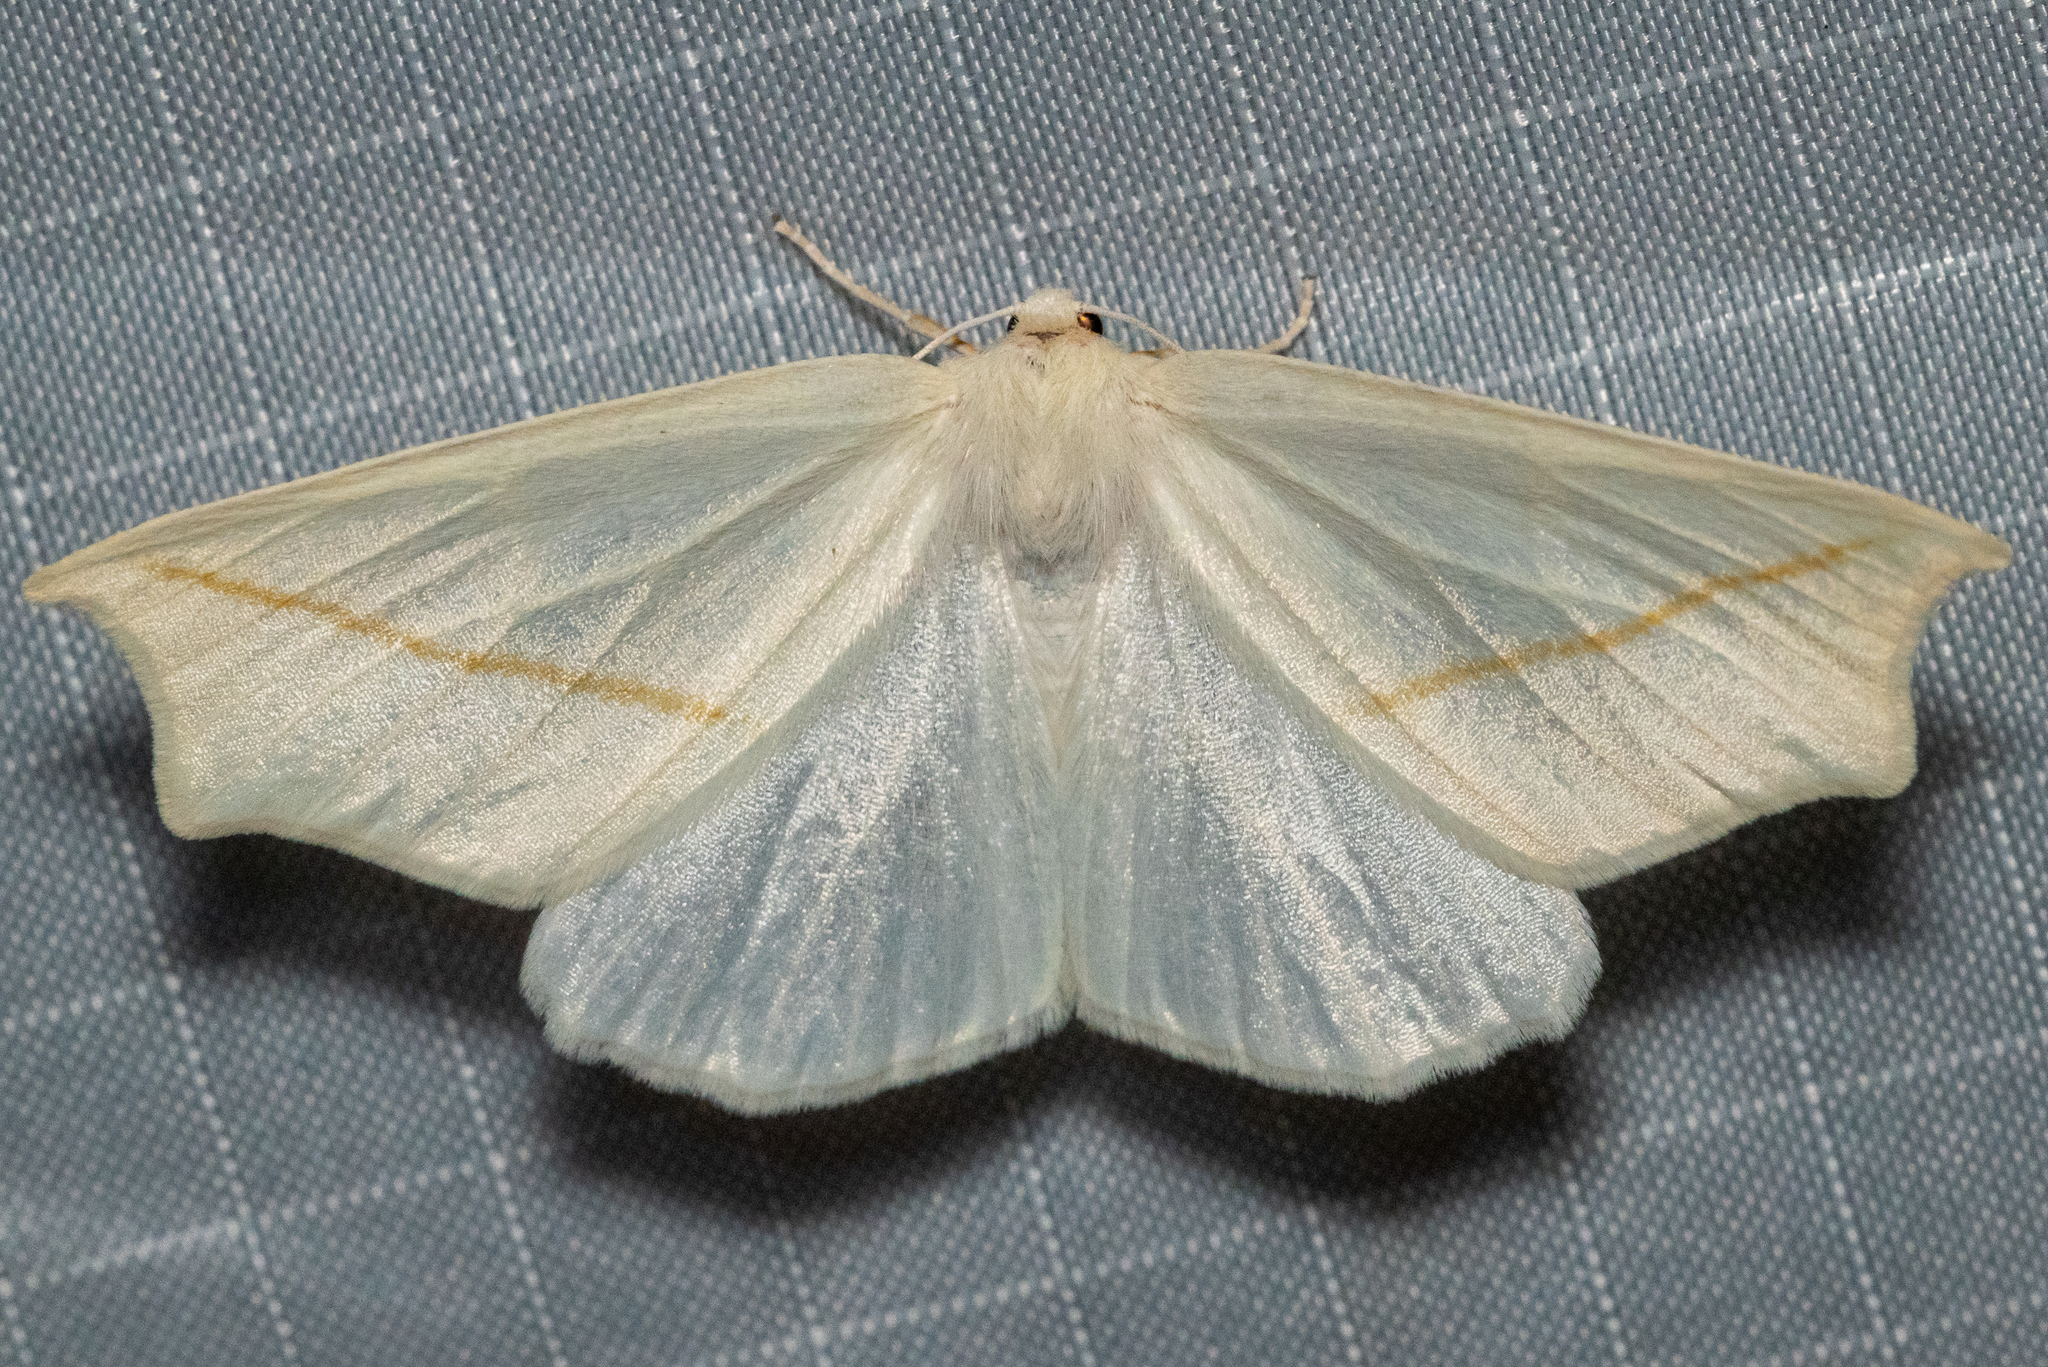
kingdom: Animalia
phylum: Arthropoda
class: Insecta
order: Lepidoptera
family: Geometridae
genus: Tetracis
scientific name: Tetracis cachexiata
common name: White slant-line
